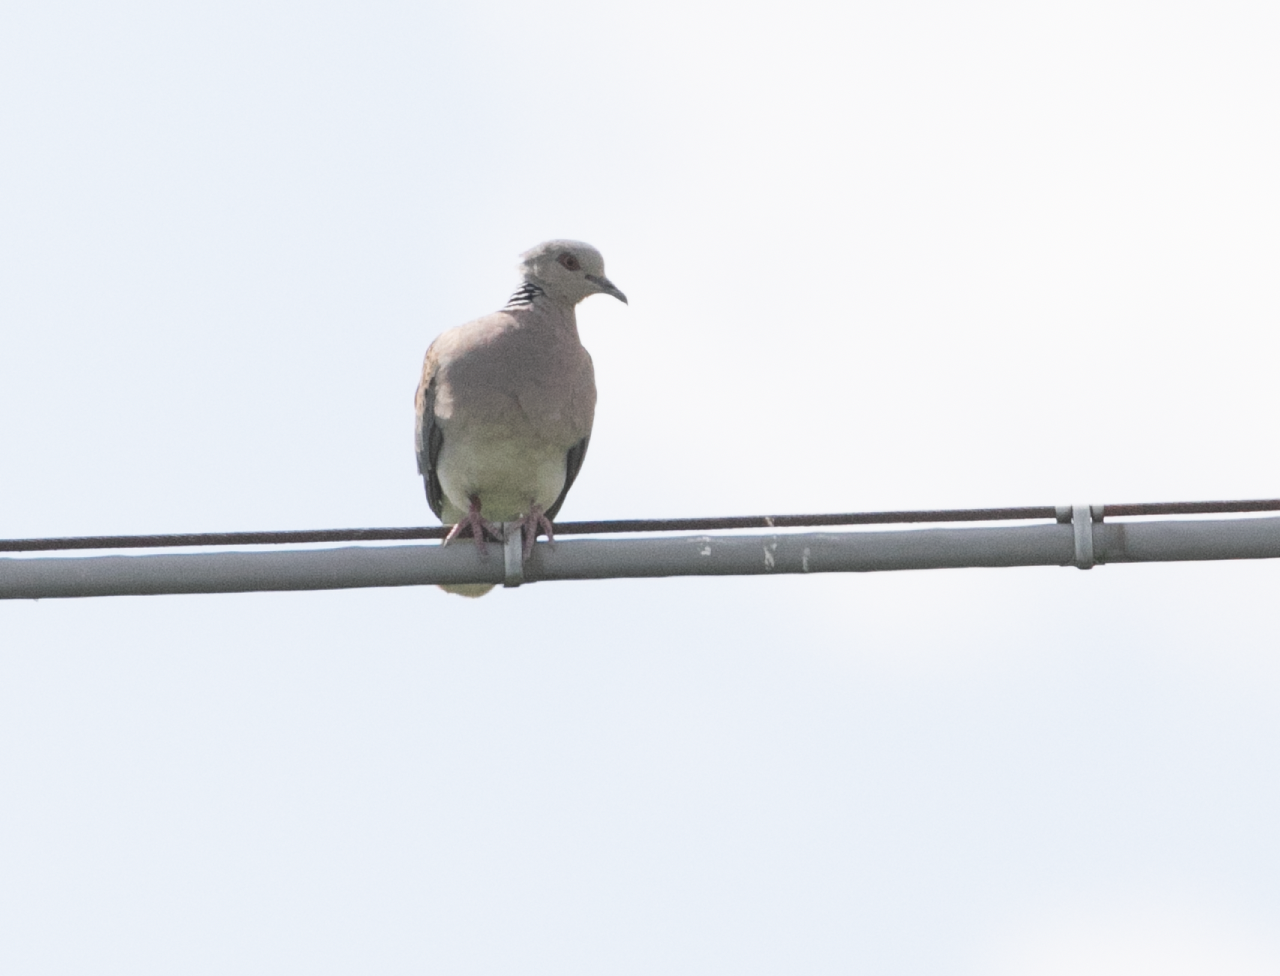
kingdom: Animalia
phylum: Chordata
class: Aves
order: Columbiformes
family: Columbidae
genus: Streptopelia
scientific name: Streptopelia turtur
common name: European turtle dove
